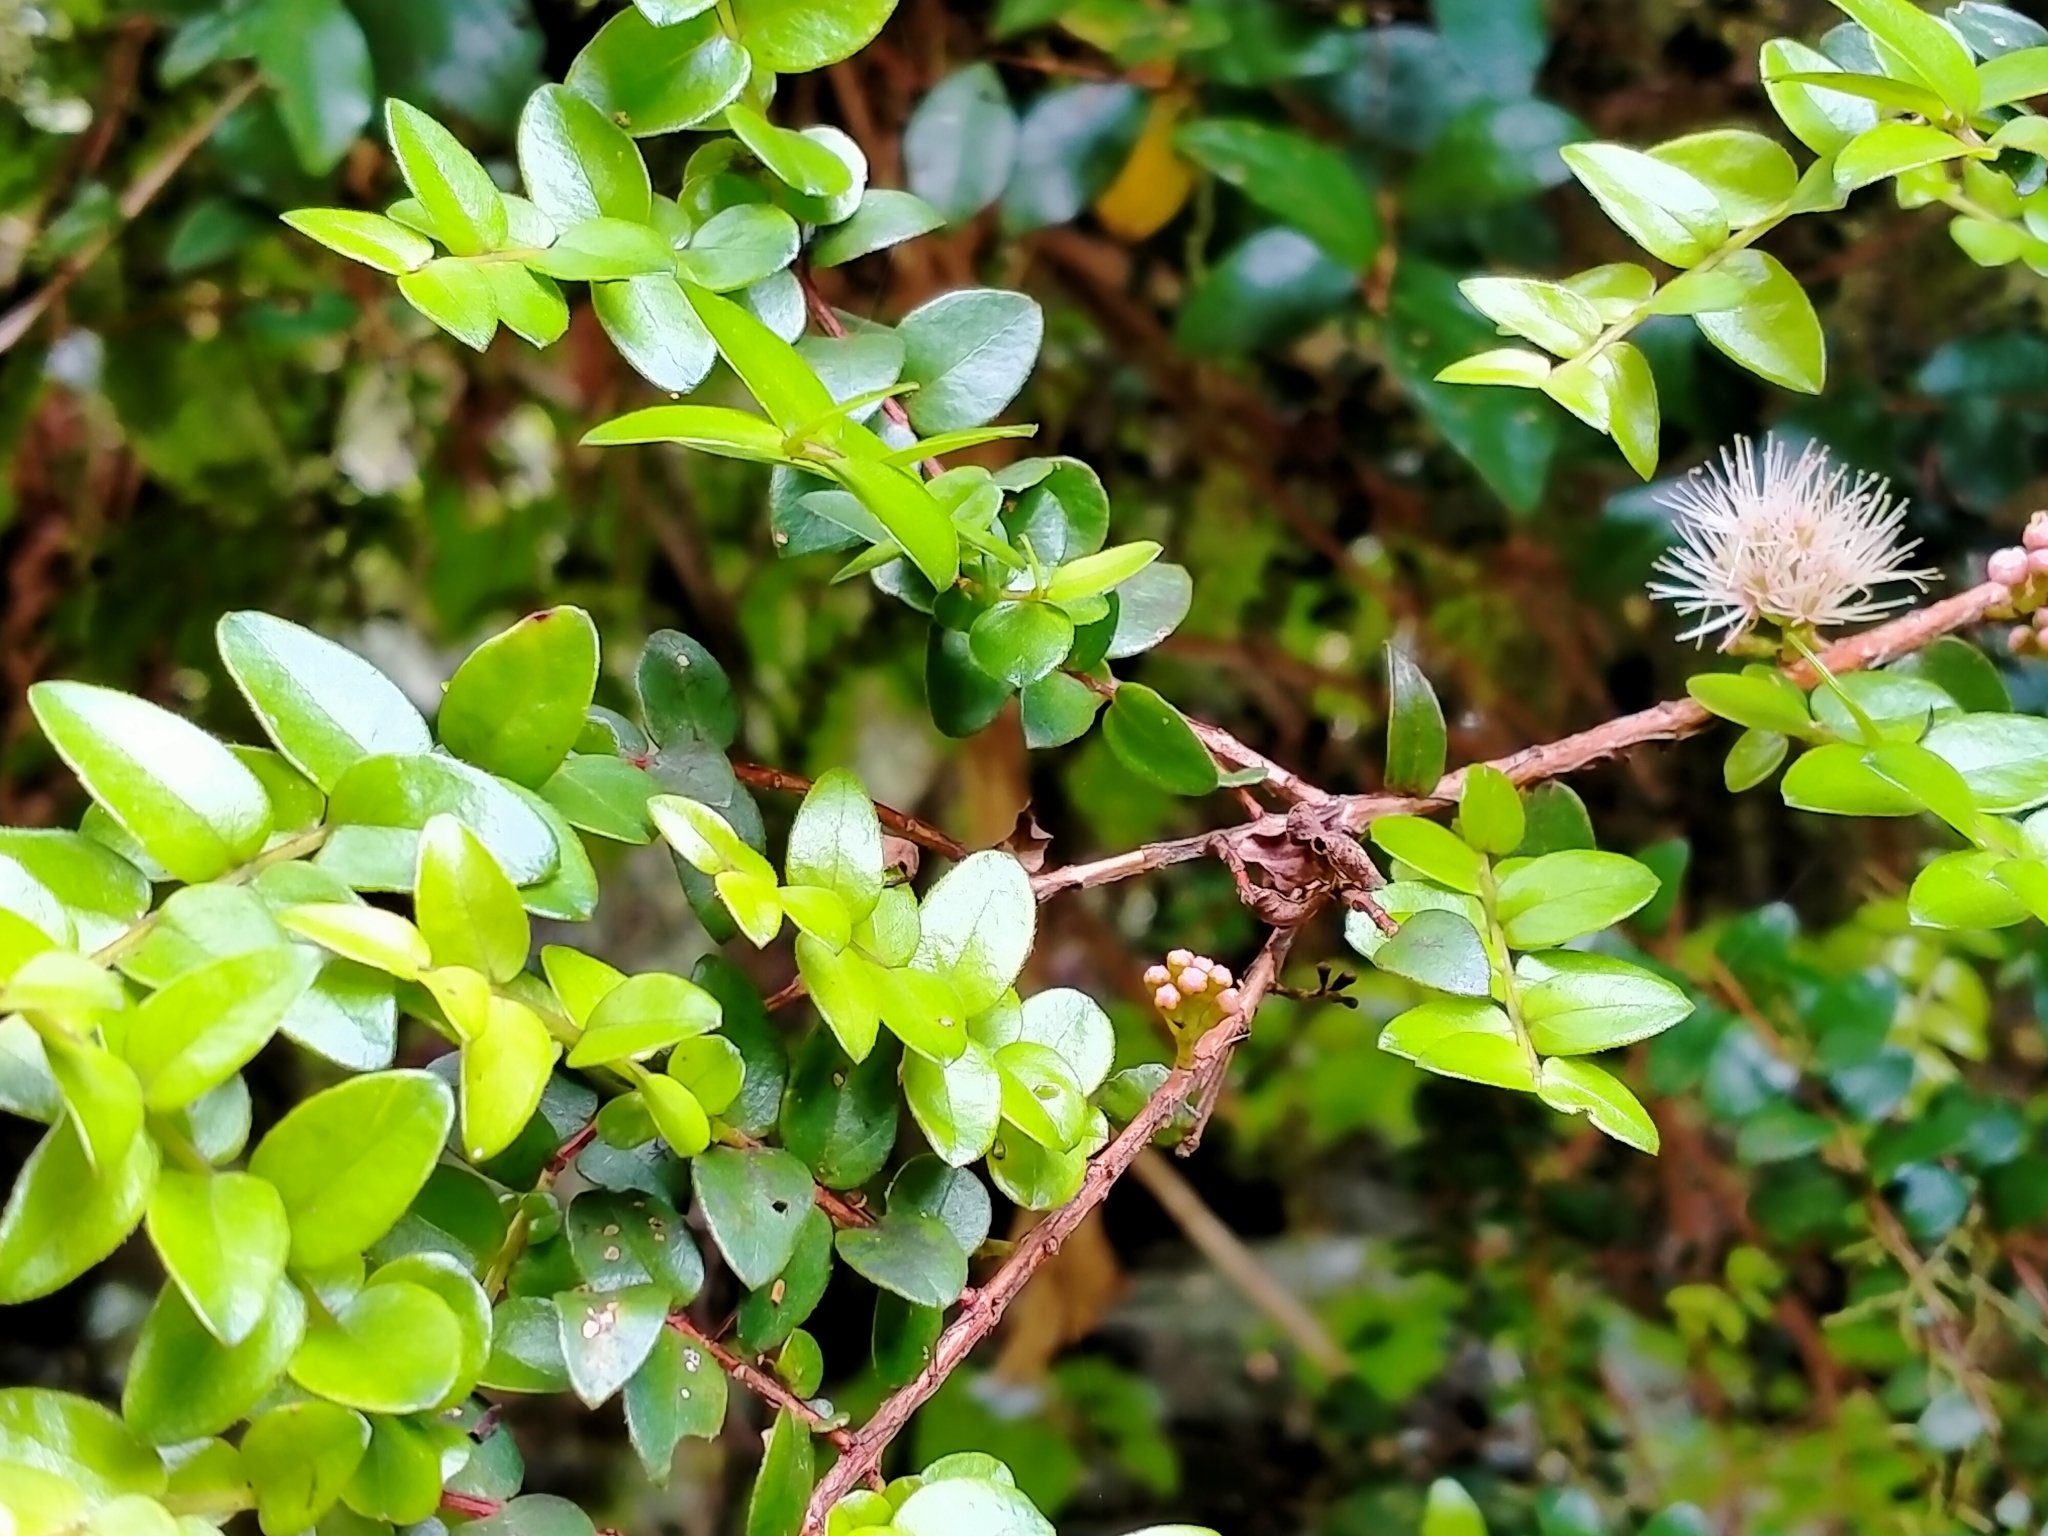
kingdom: Plantae
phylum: Tracheophyta
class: Magnoliopsida
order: Myrtales
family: Myrtaceae
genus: Metrosideros
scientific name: Metrosideros diffusa
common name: Small ratavine
